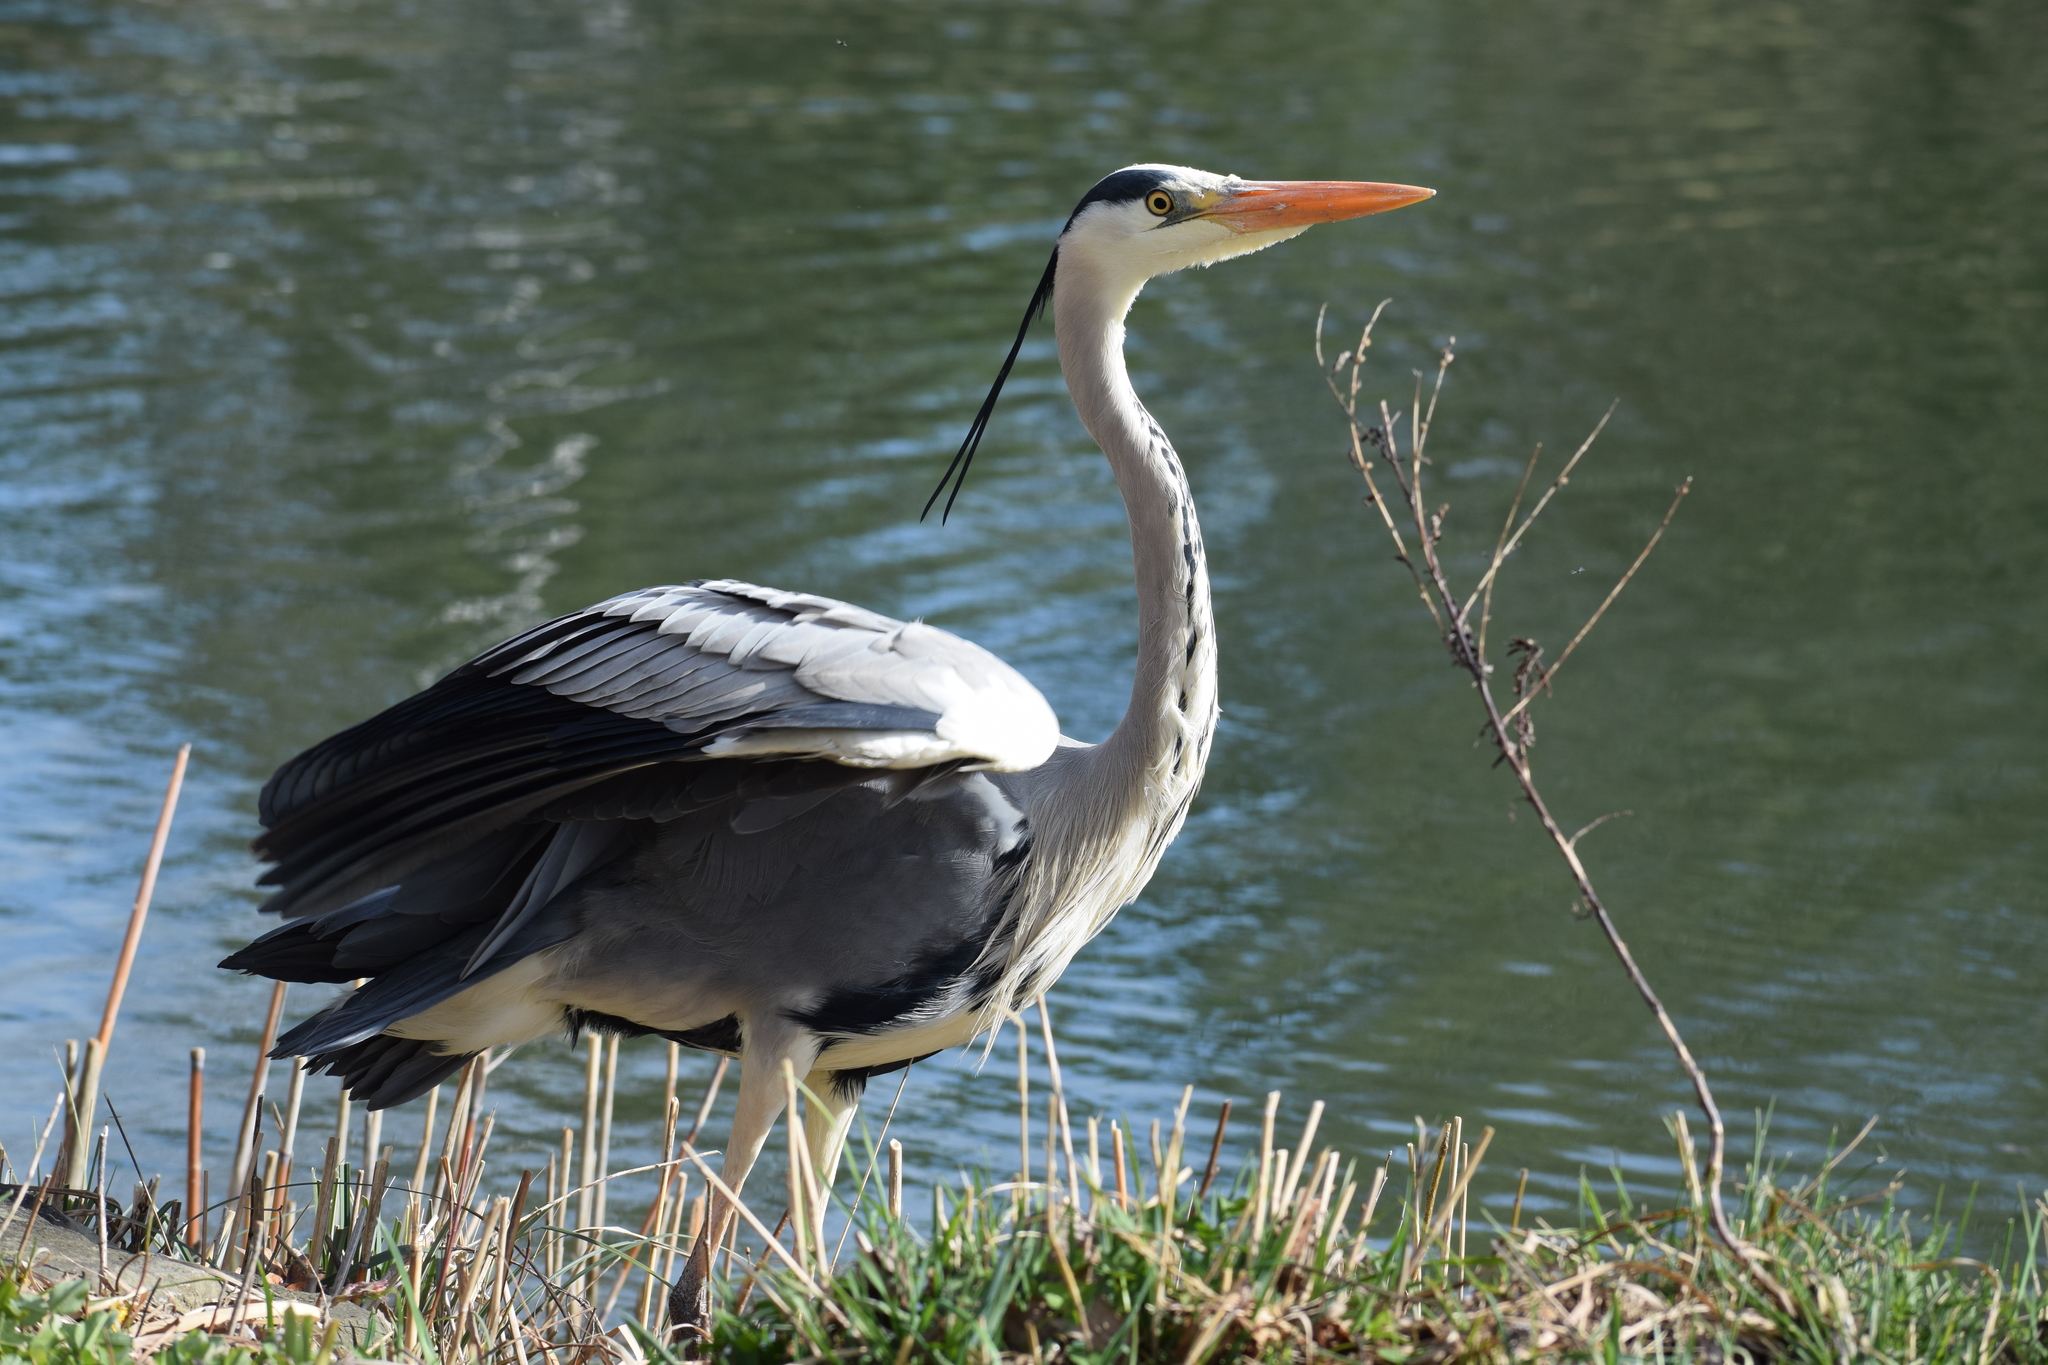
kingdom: Animalia
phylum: Chordata
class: Aves
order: Pelecaniformes
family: Ardeidae
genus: Ardea
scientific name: Ardea cinerea
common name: Grey heron
